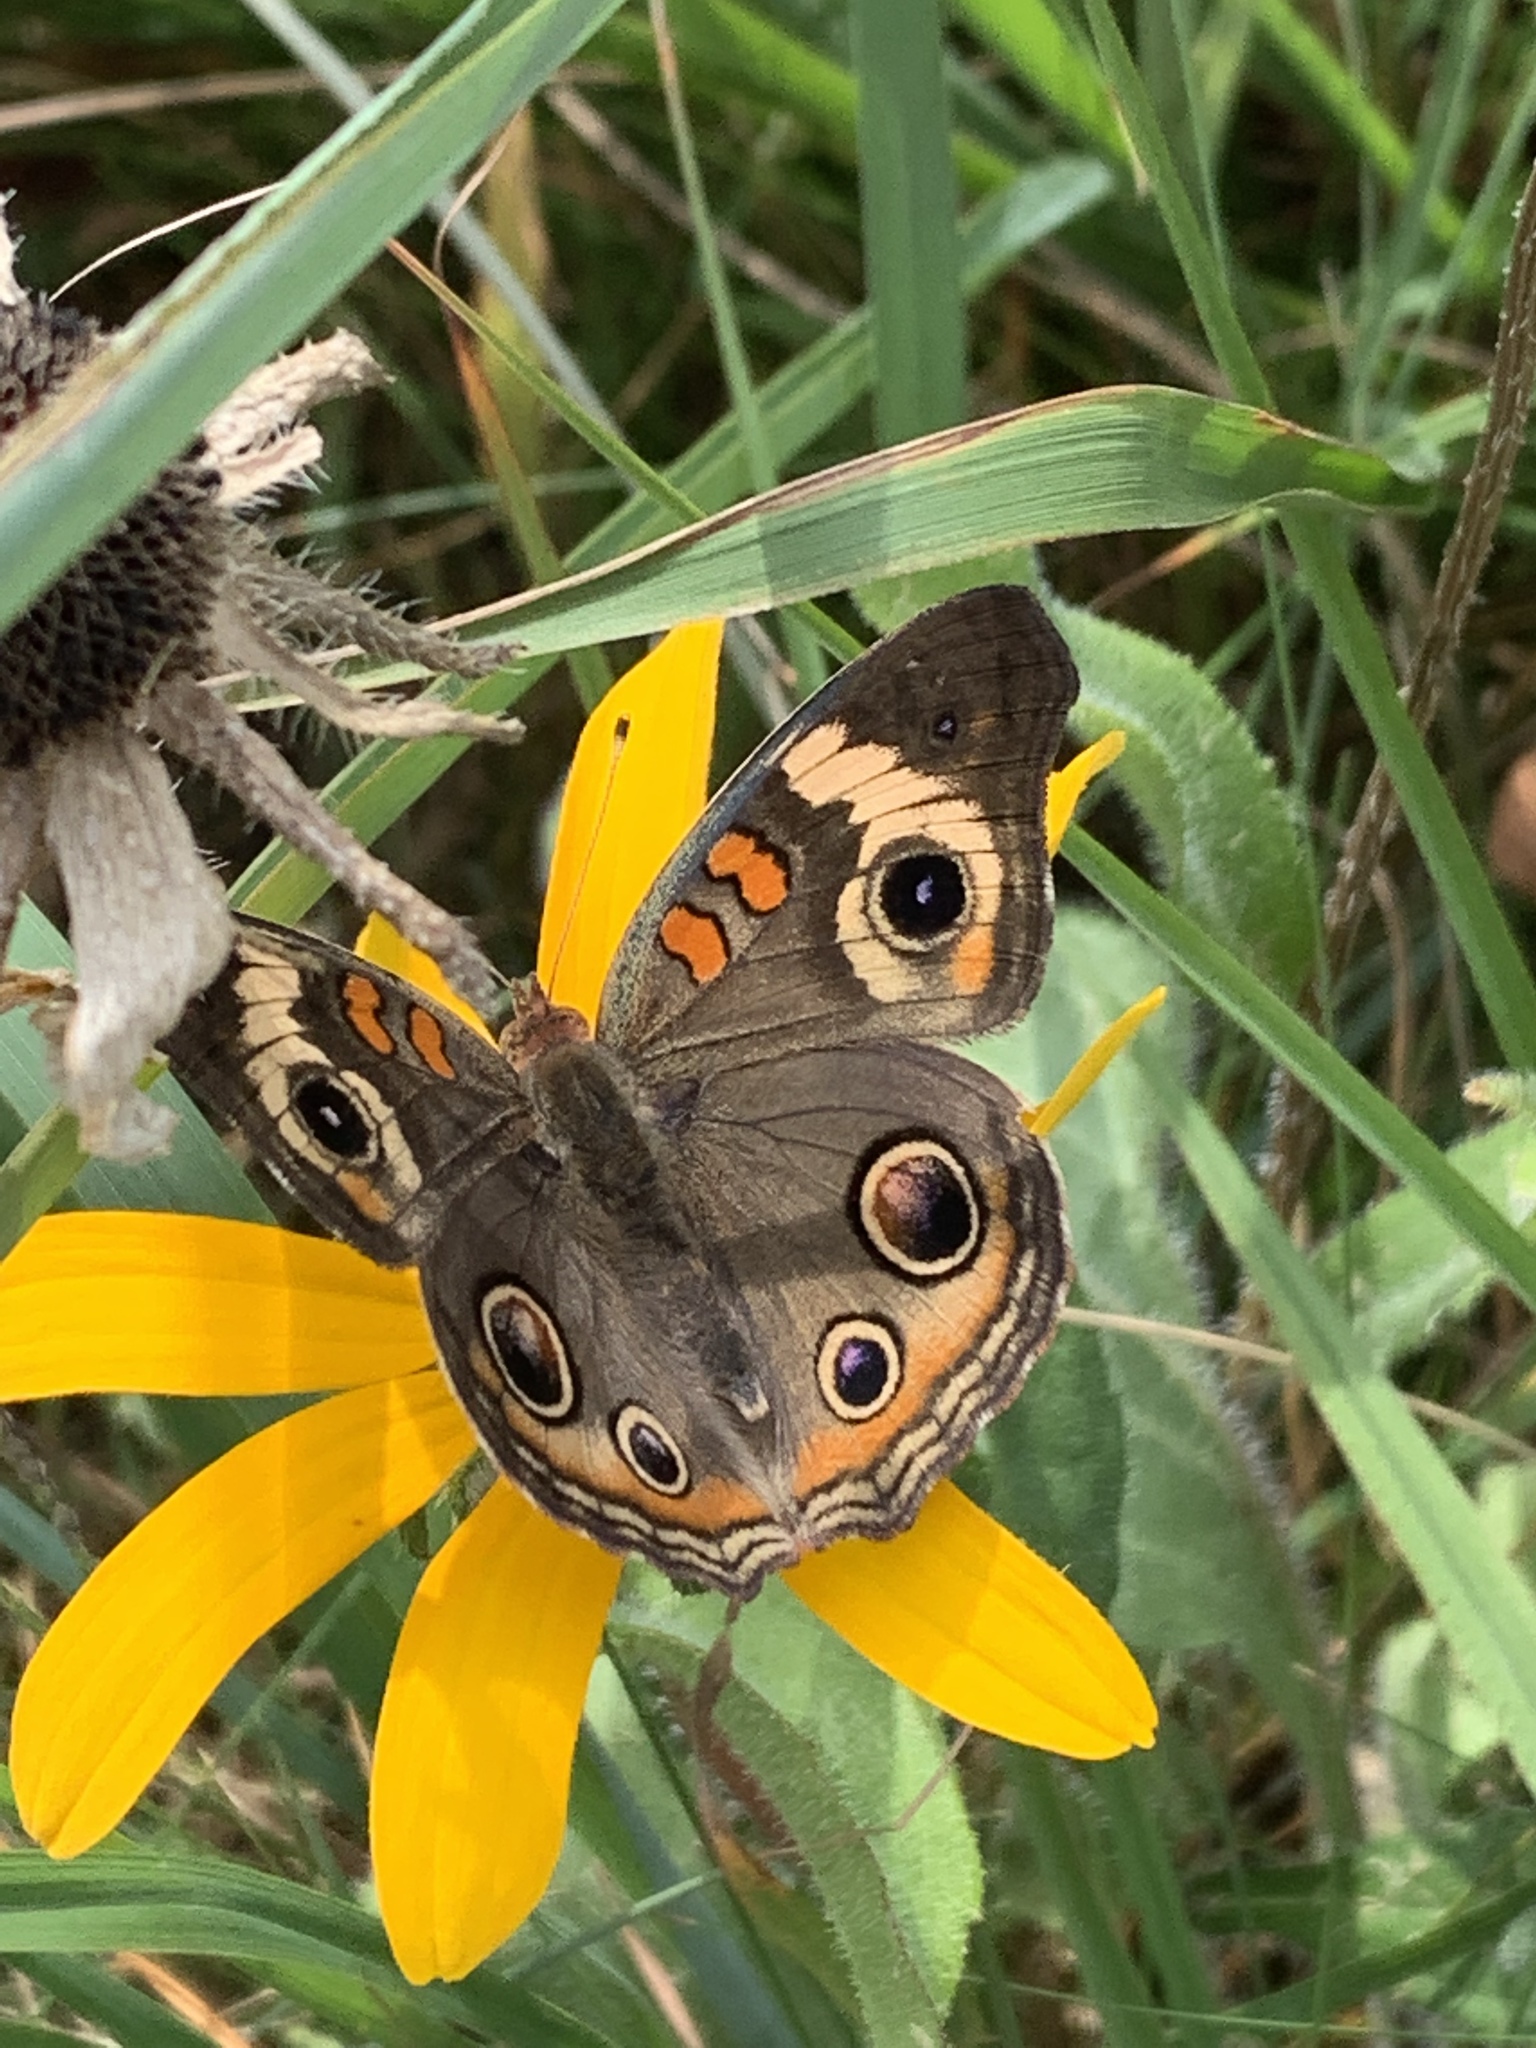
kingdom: Animalia
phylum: Arthropoda
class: Insecta
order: Lepidoptera
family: Nymphalidae
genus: Junonia
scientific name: Junonia coenia
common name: Common buckeye
